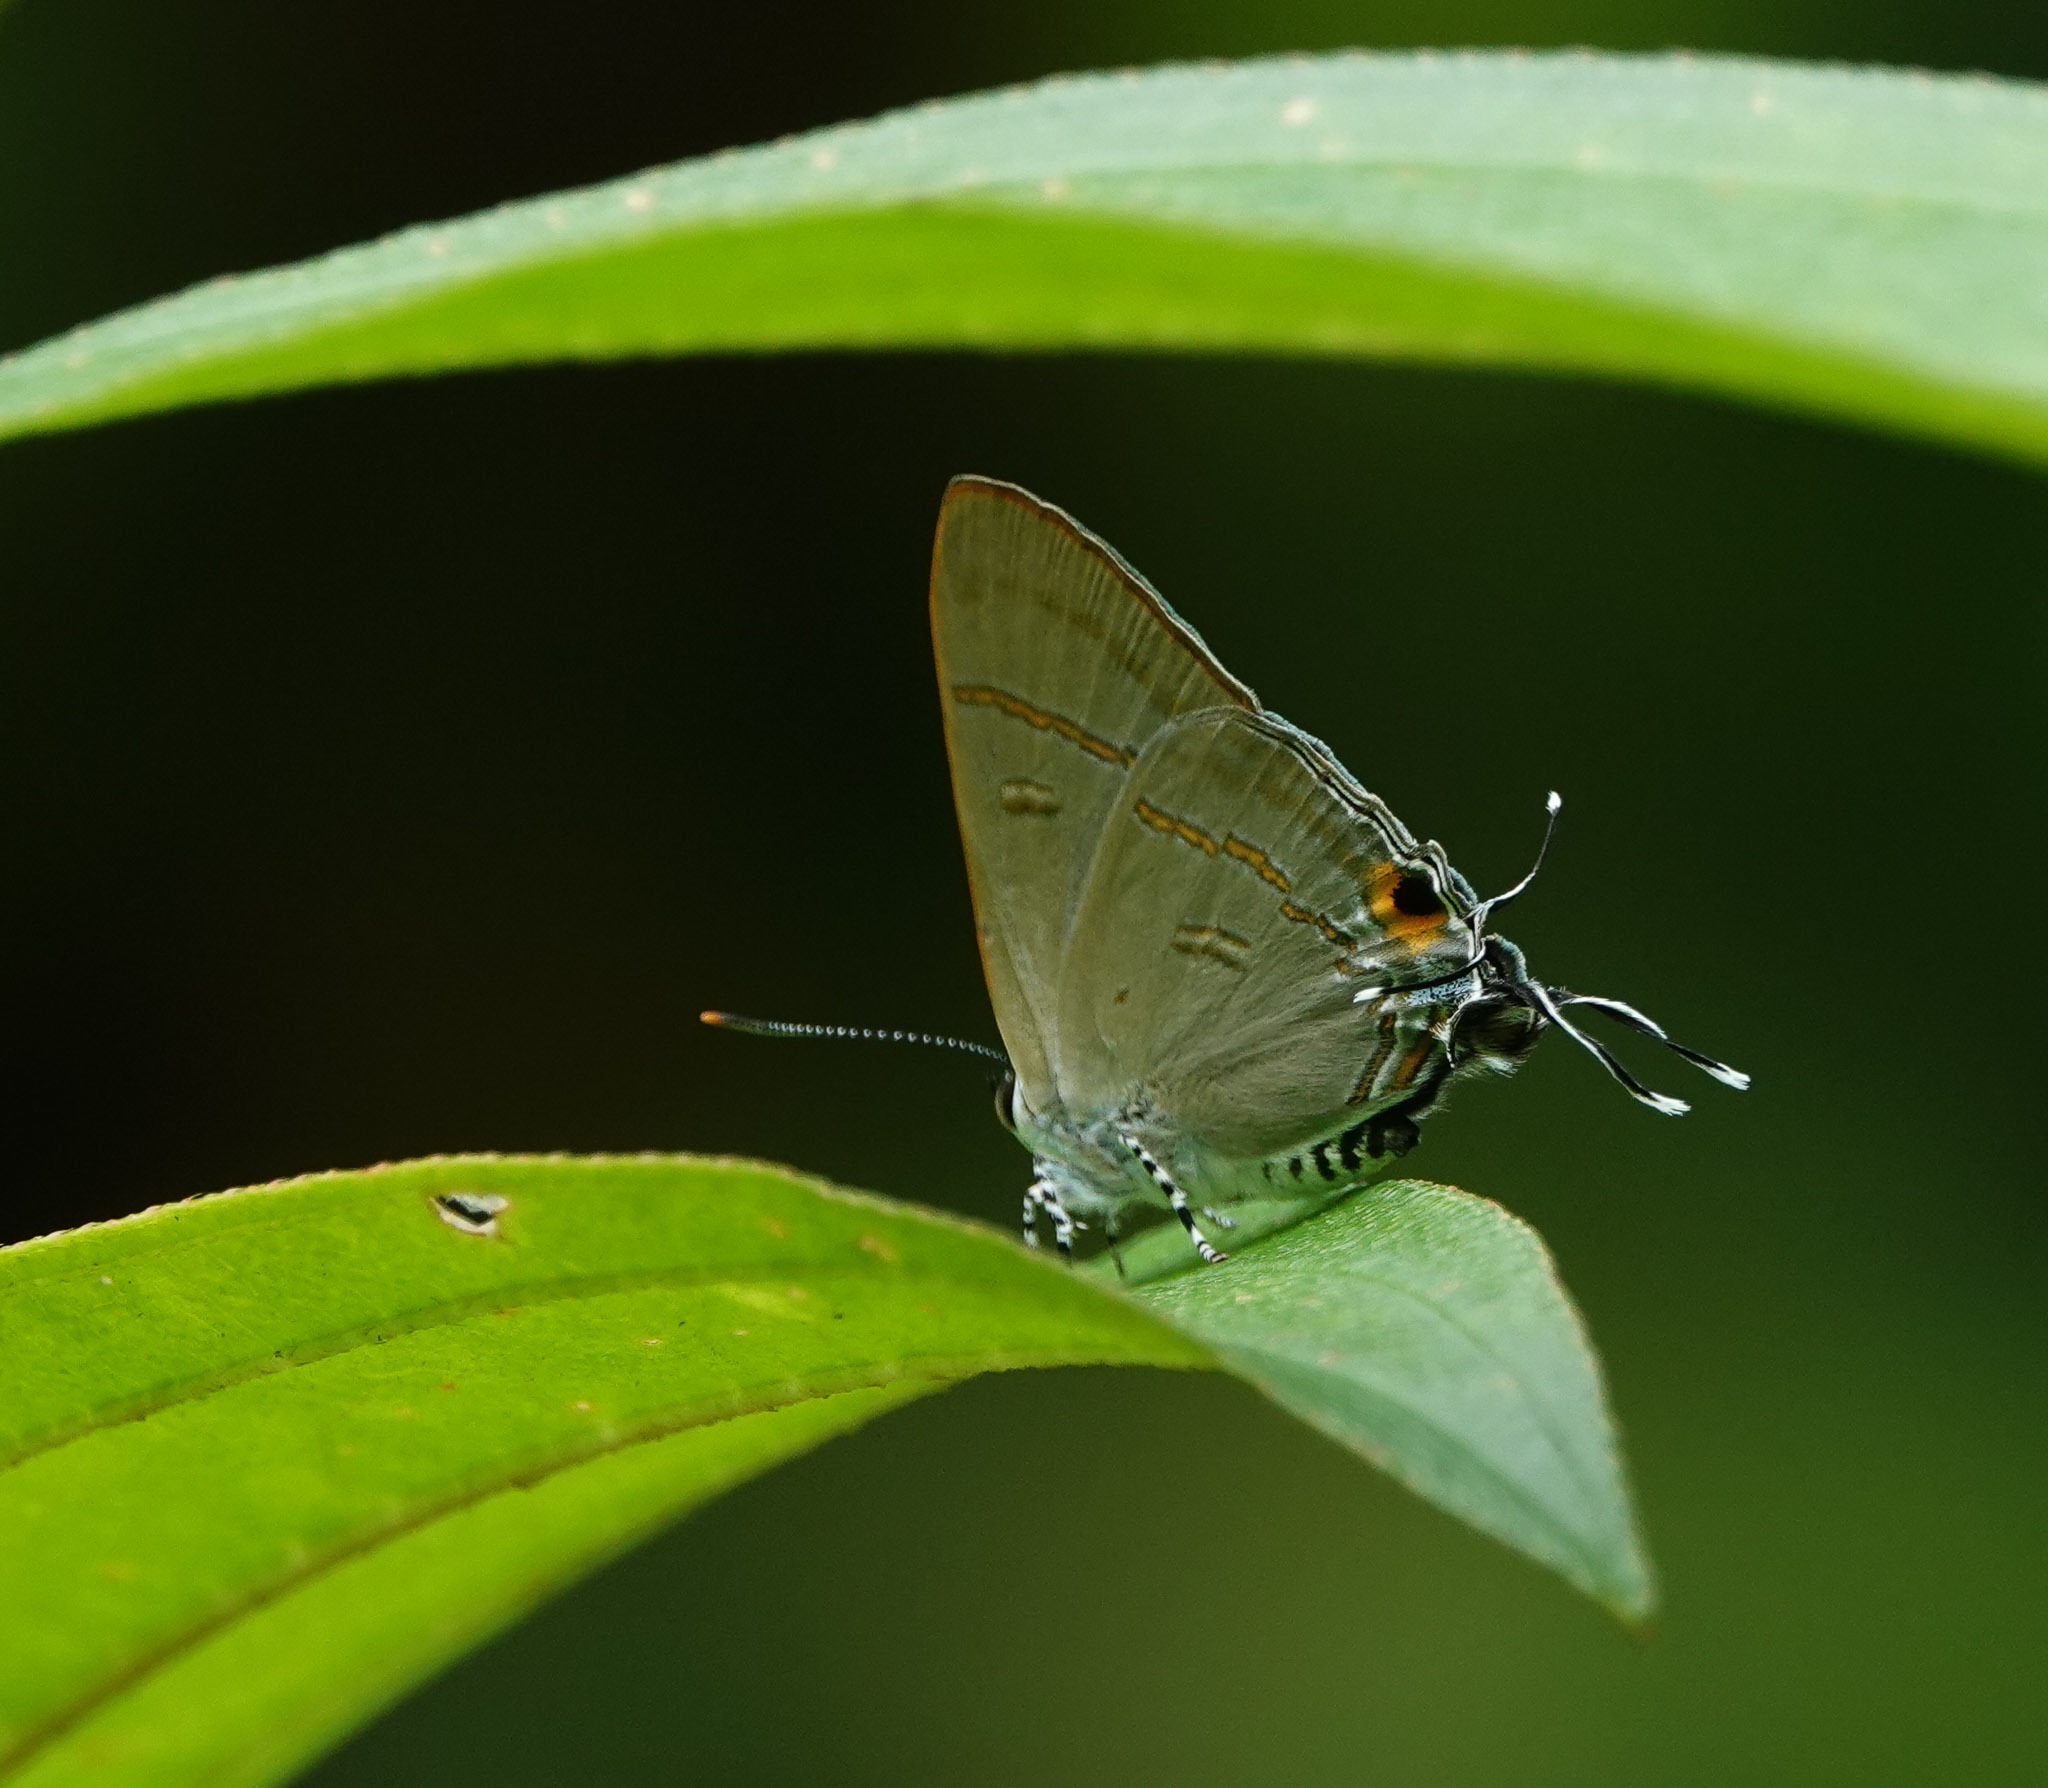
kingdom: Animalia
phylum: Arthropoda
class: Insecta
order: Lepidoptera
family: Lycaenidae
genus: Hypolycaena
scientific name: Hypolycaena erylus
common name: Common tit
